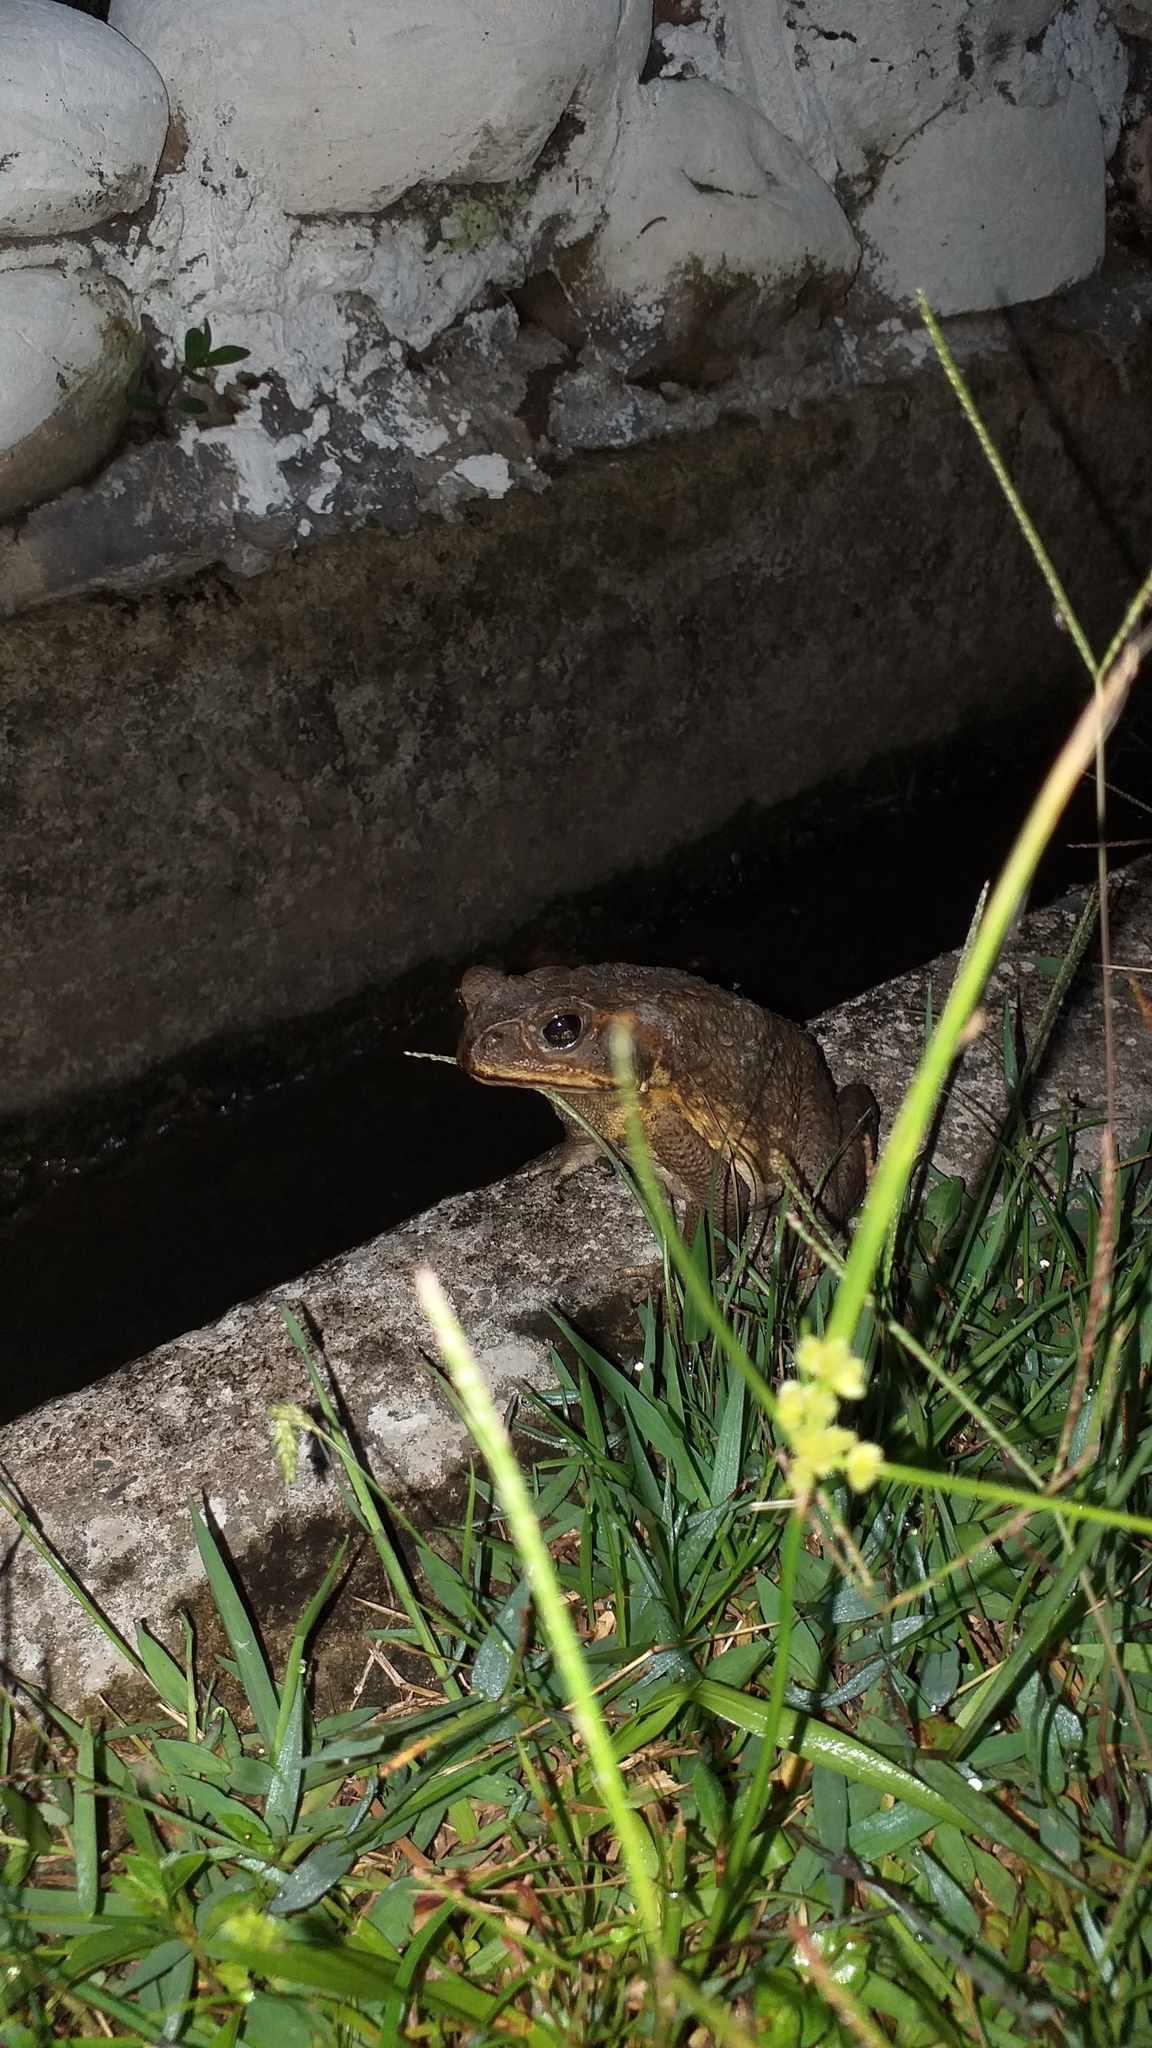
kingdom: Animalia
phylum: Chordata
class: Amphibia
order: Anura
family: Bufonidae
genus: Rhinella
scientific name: Rhinella marina
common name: Cane toad
